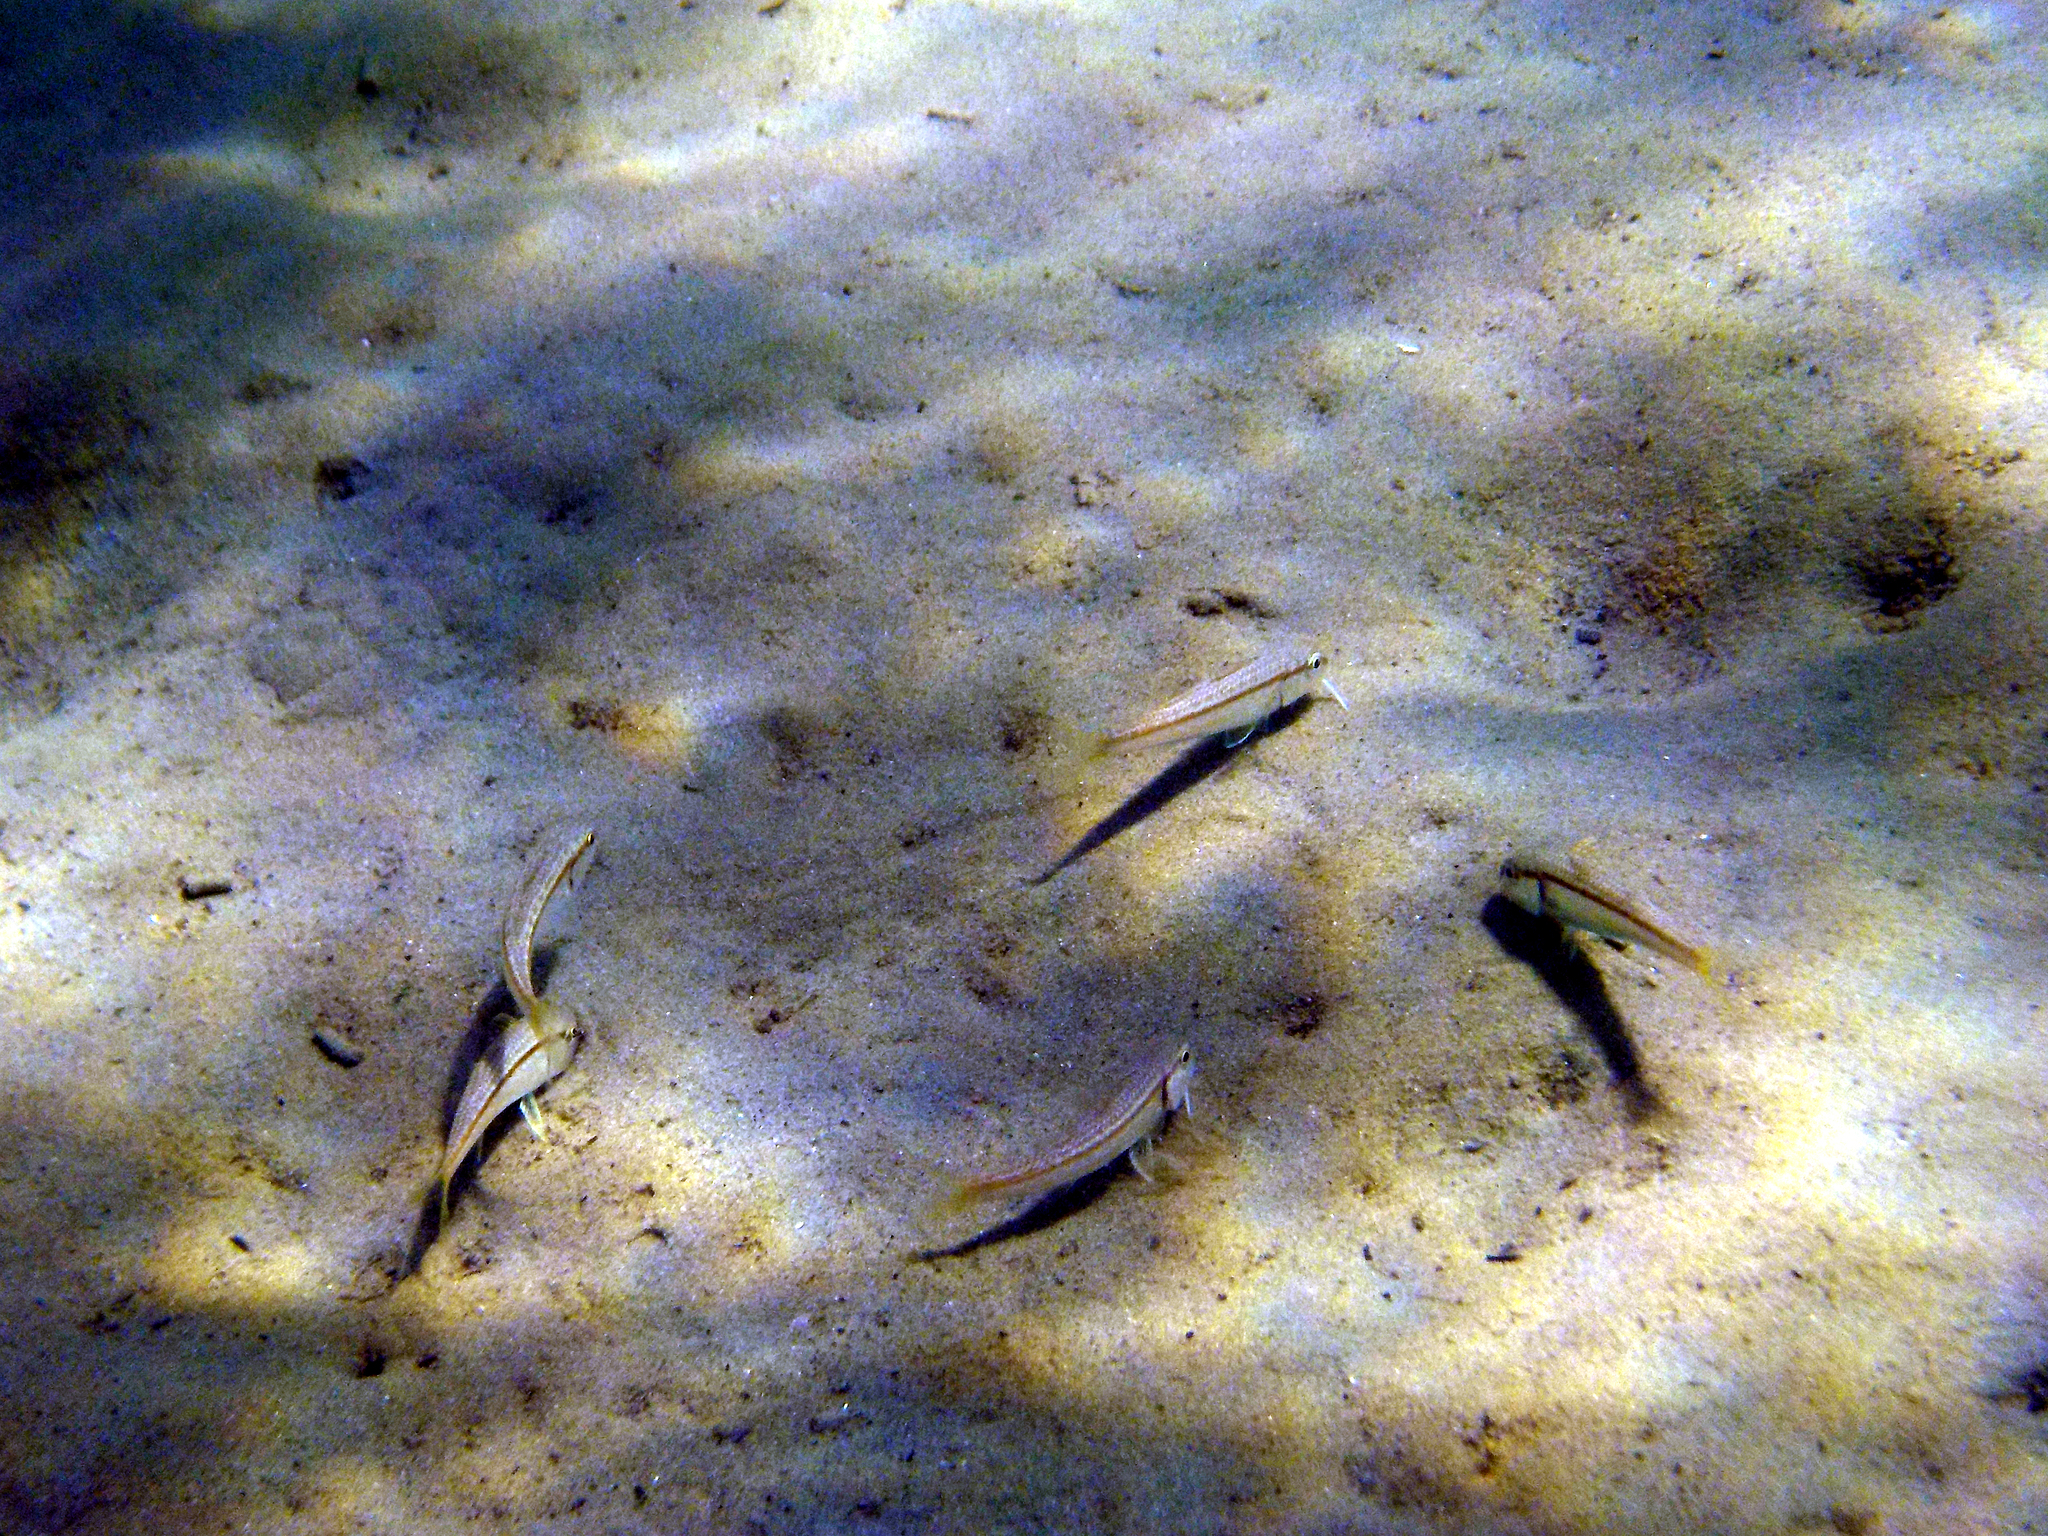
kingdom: Animalia
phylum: Chordata
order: Perciformes
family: Mullidae
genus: Mullus
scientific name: Mullus barbatus
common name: Blunt-snouted mullet
